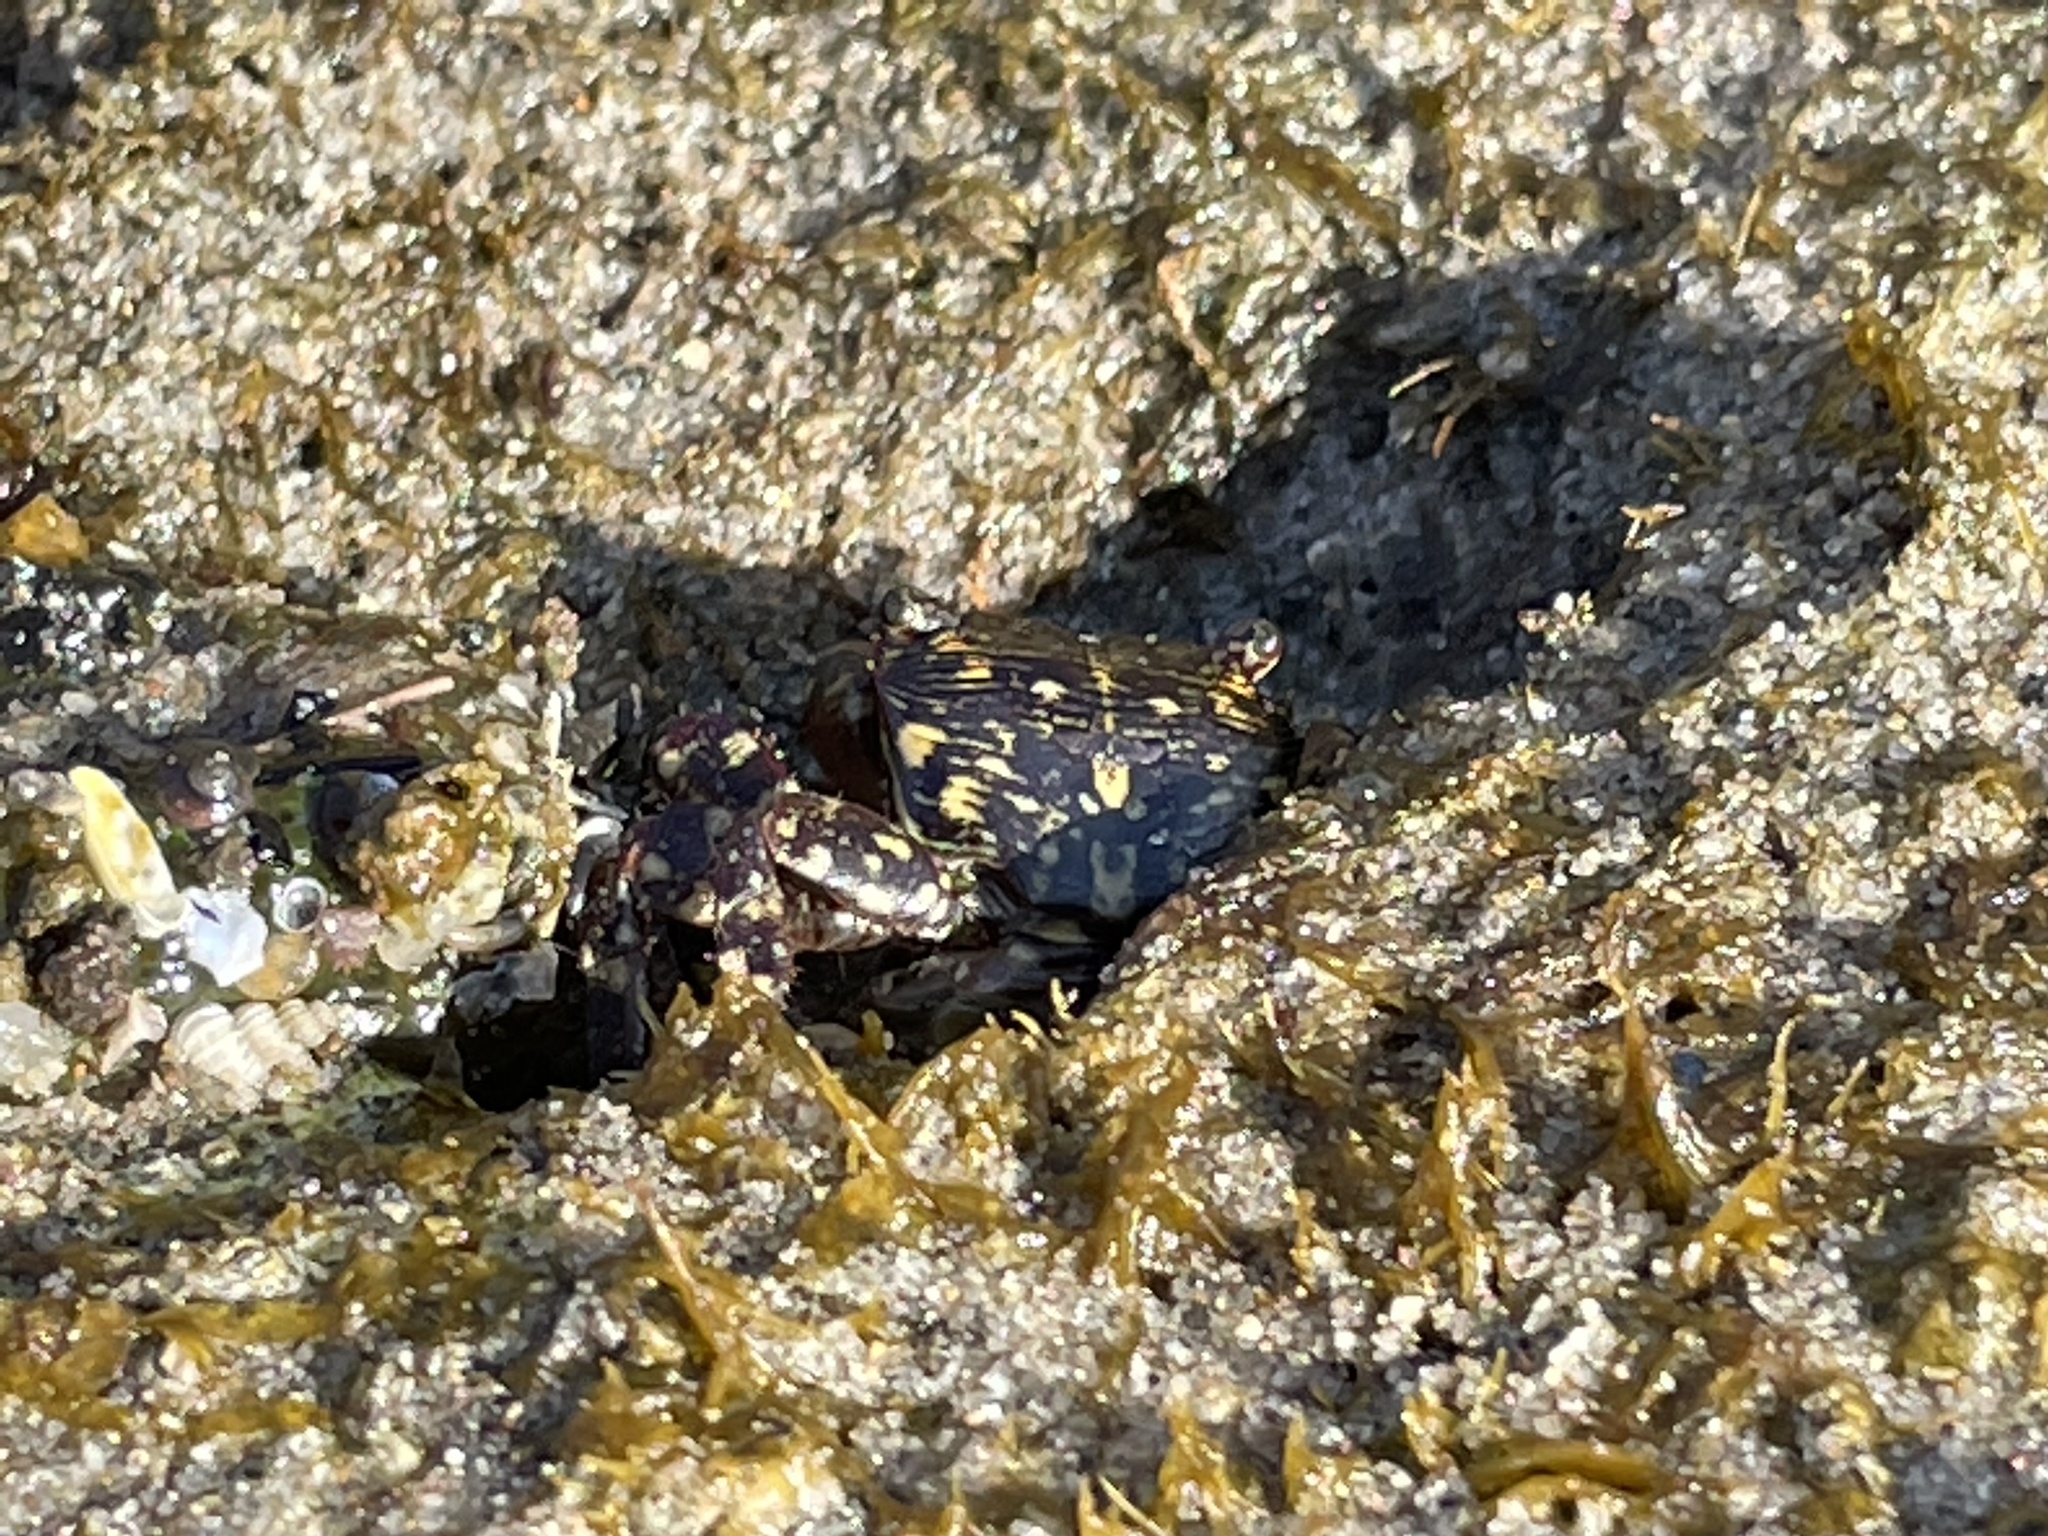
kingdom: Animalia
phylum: Arthropoda
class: Malacostraca
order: Decapoda
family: Grapsidae
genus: Pachygrapsus
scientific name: Pachygrapsus crassipes
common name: Striped shore crab
